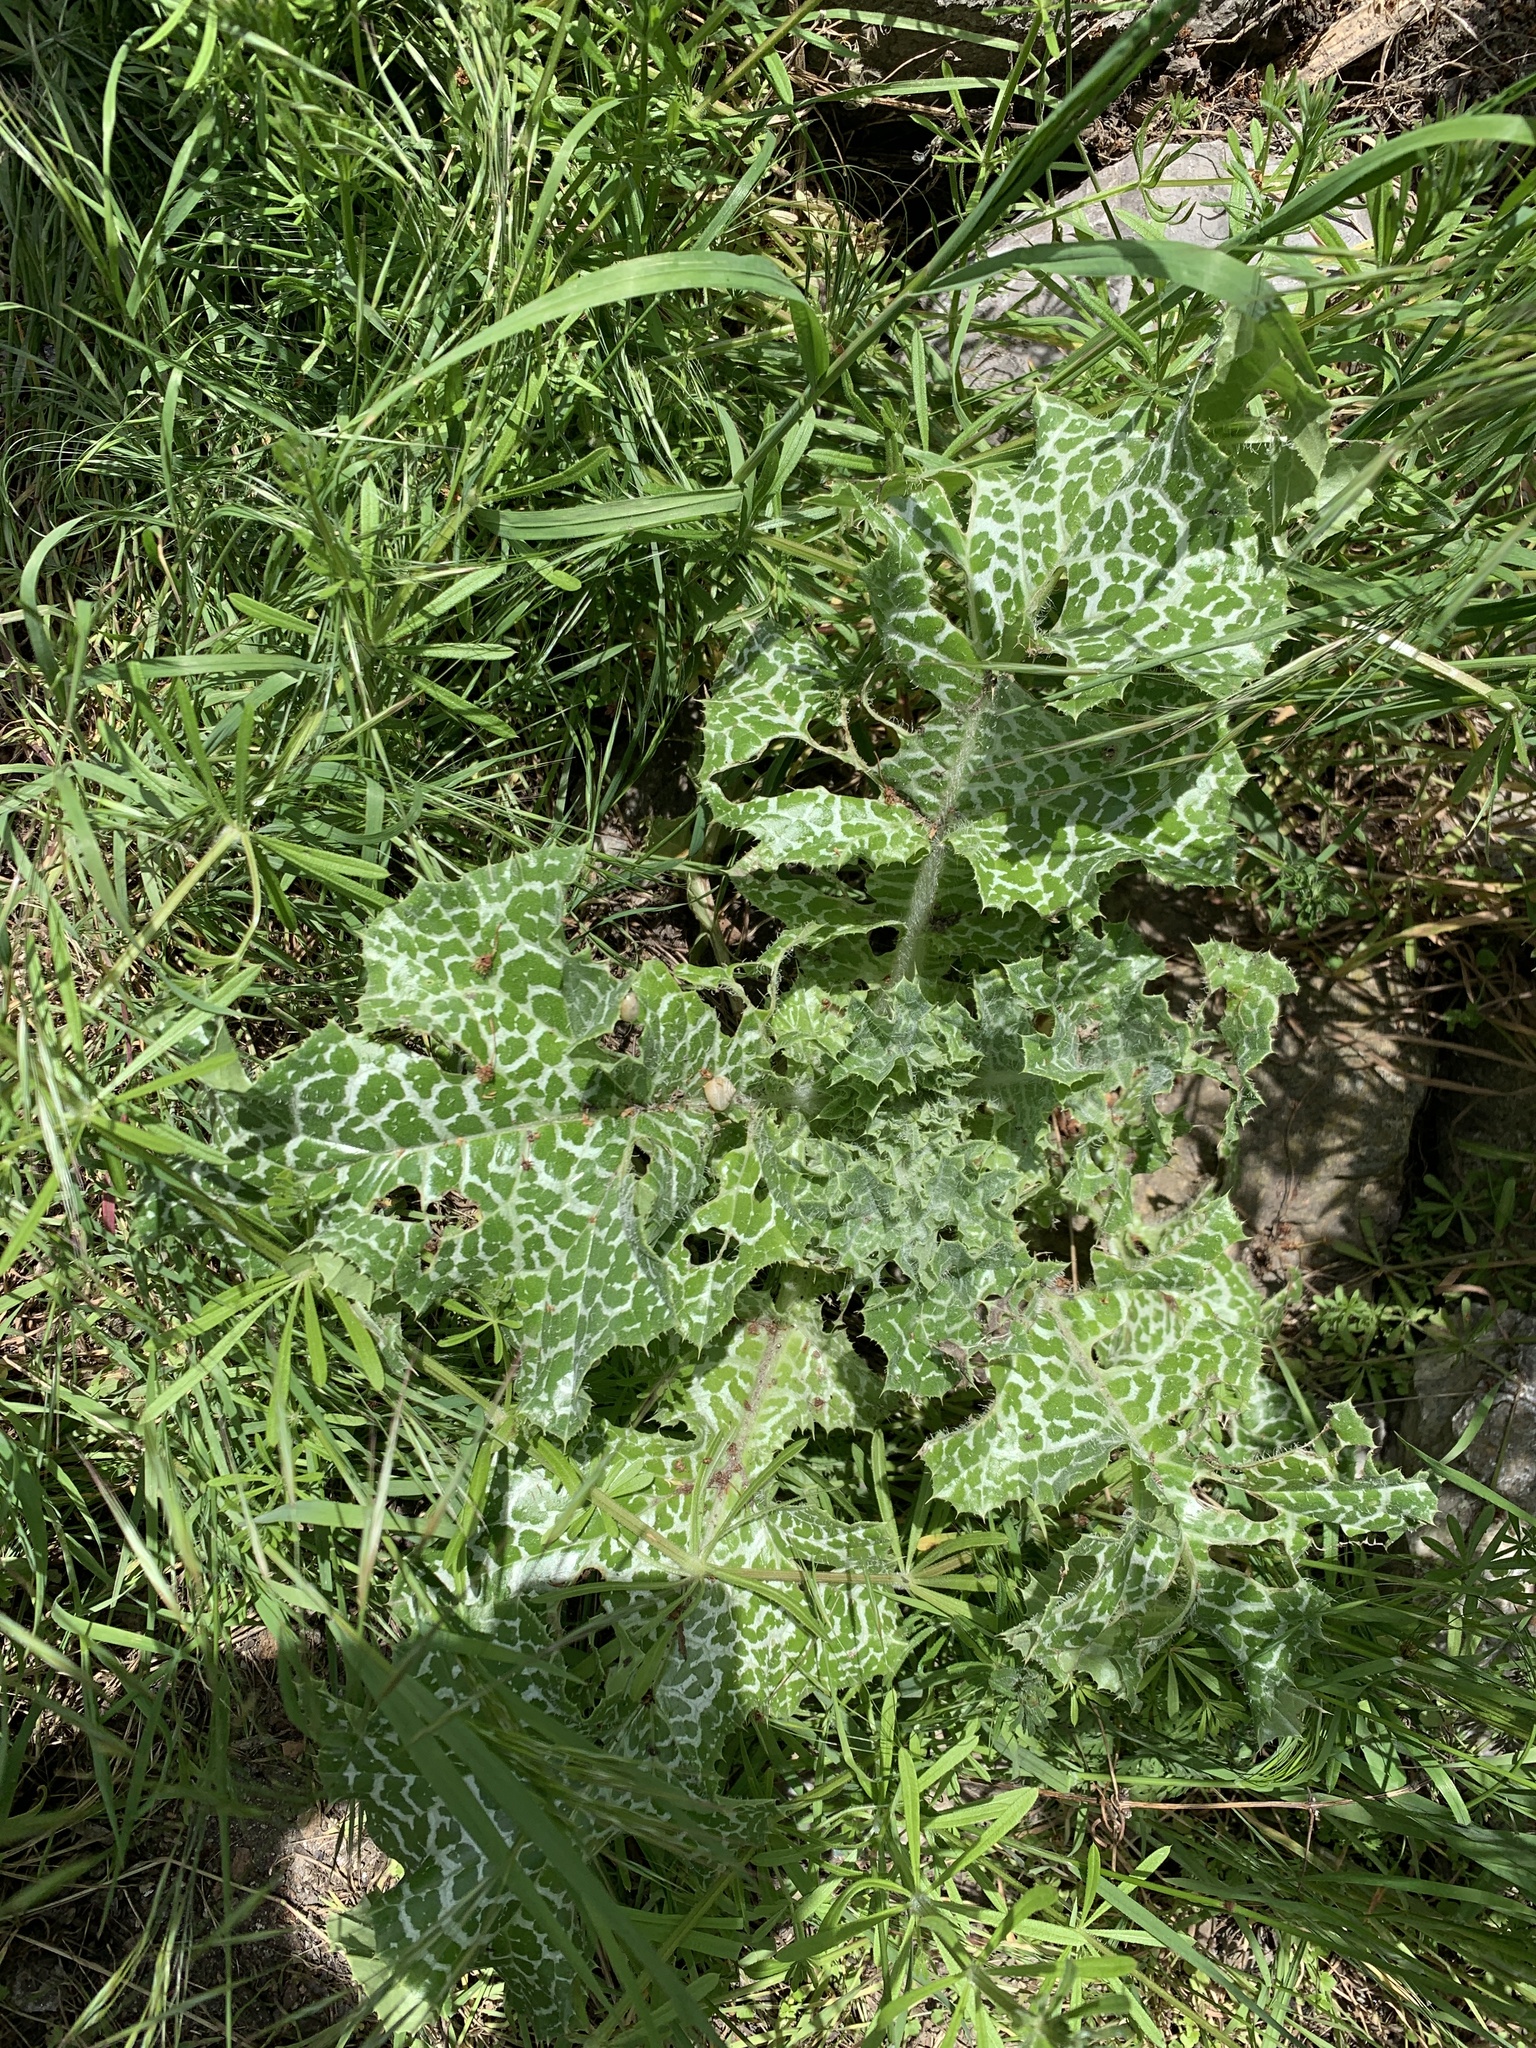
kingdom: Plantae
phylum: Tracheophyta
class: Magnoliopsida
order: Asterales
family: Asteraceae
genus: Silybum
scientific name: Silybum marianum
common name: Milk thistle
